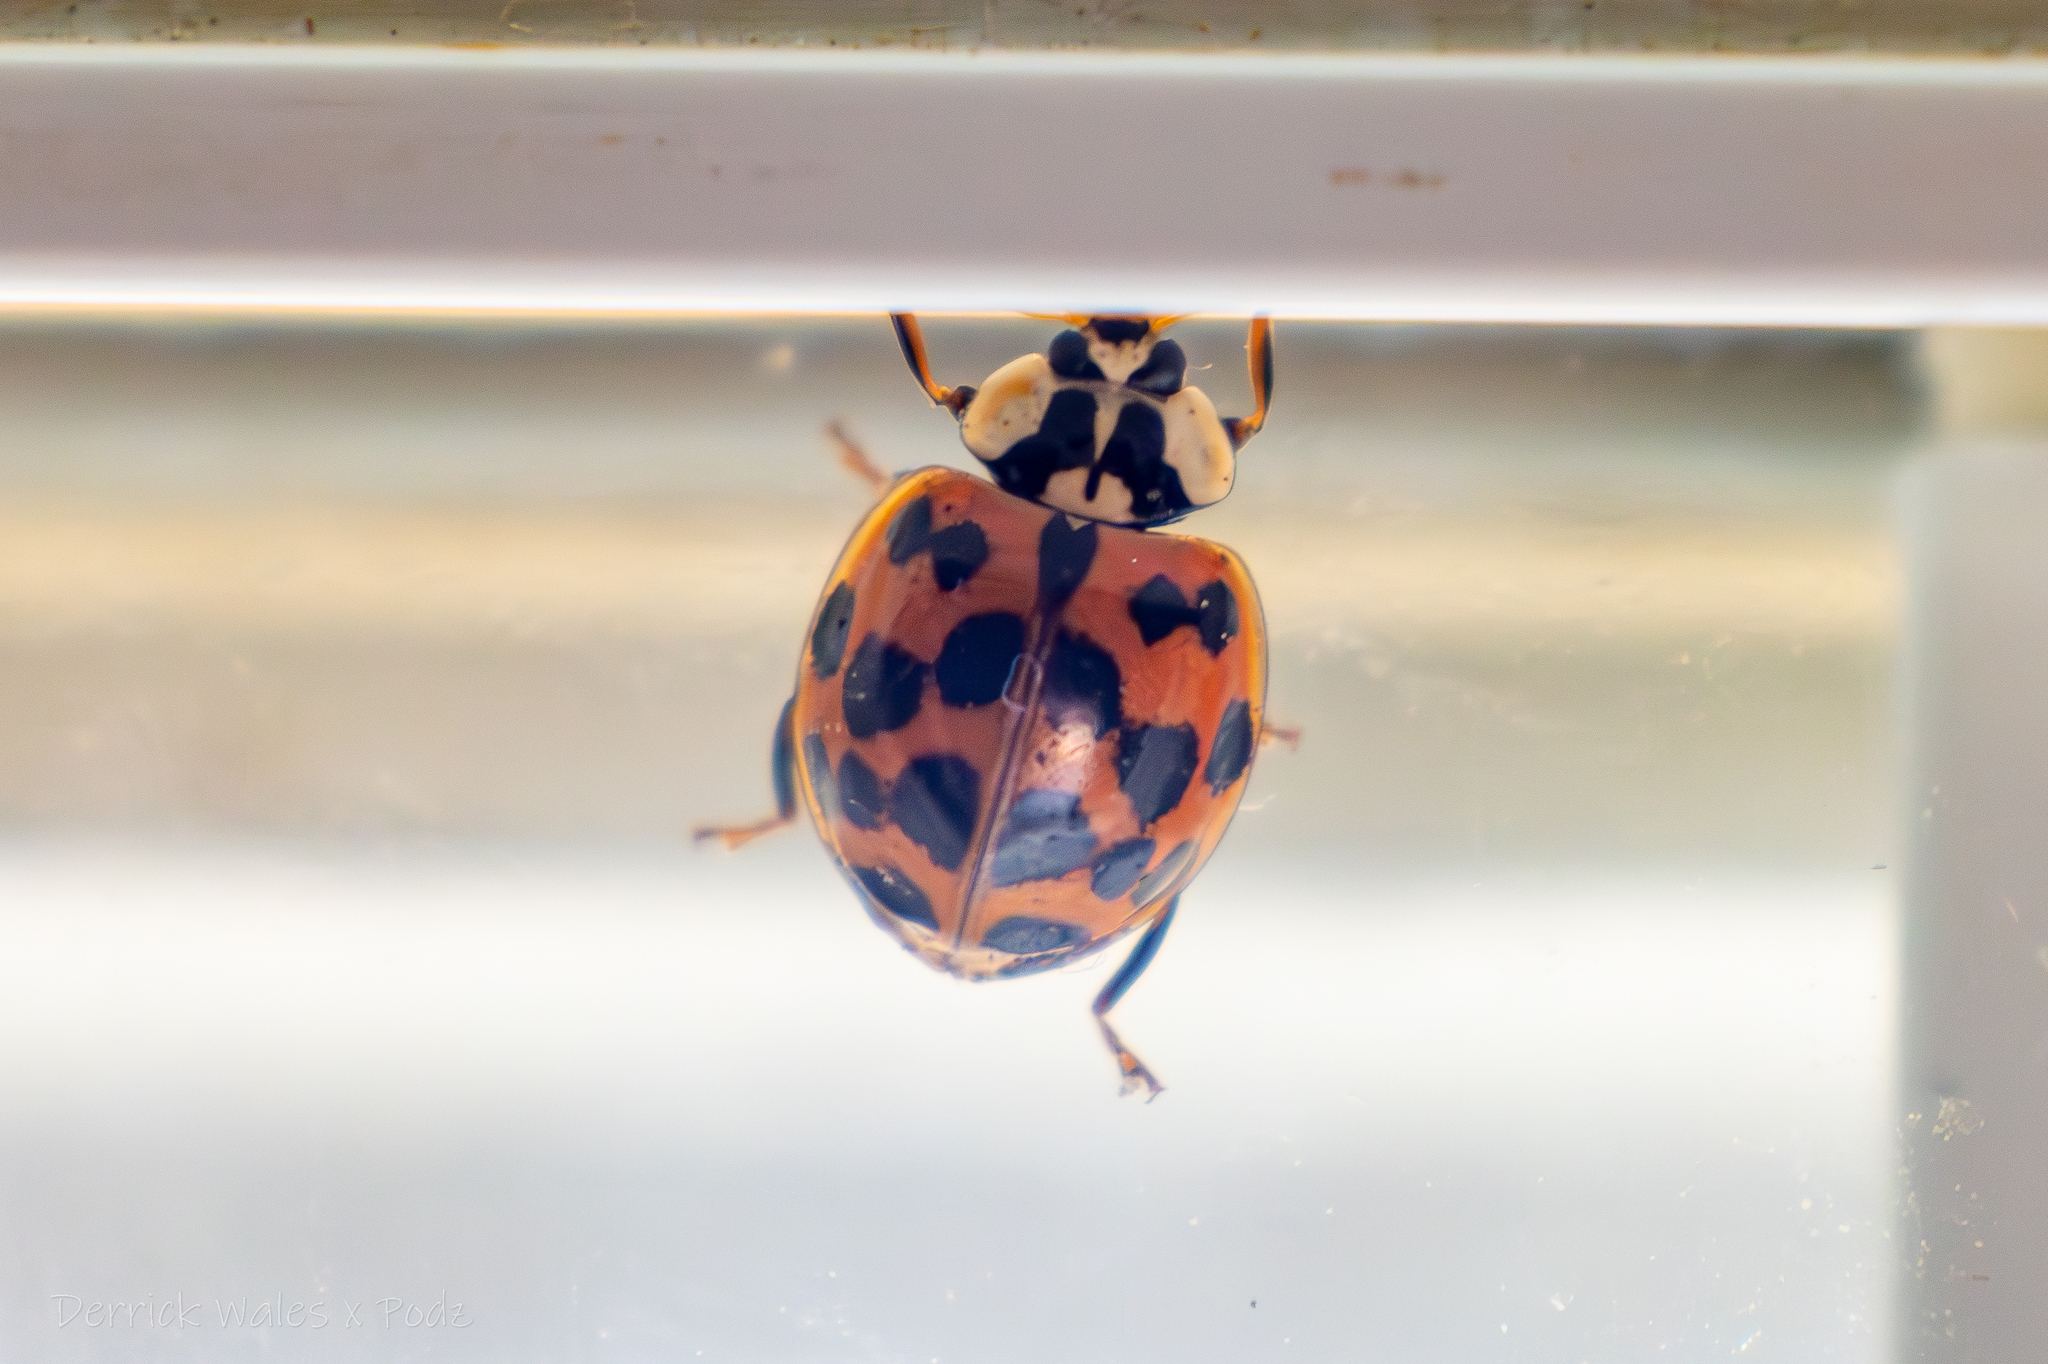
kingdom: Animalia
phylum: Arthropoda
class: Insecta
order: Coleoptera
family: Coccinellidae
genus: Harmonia
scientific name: Harmonia axyridis
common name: Harlequin ladybird
